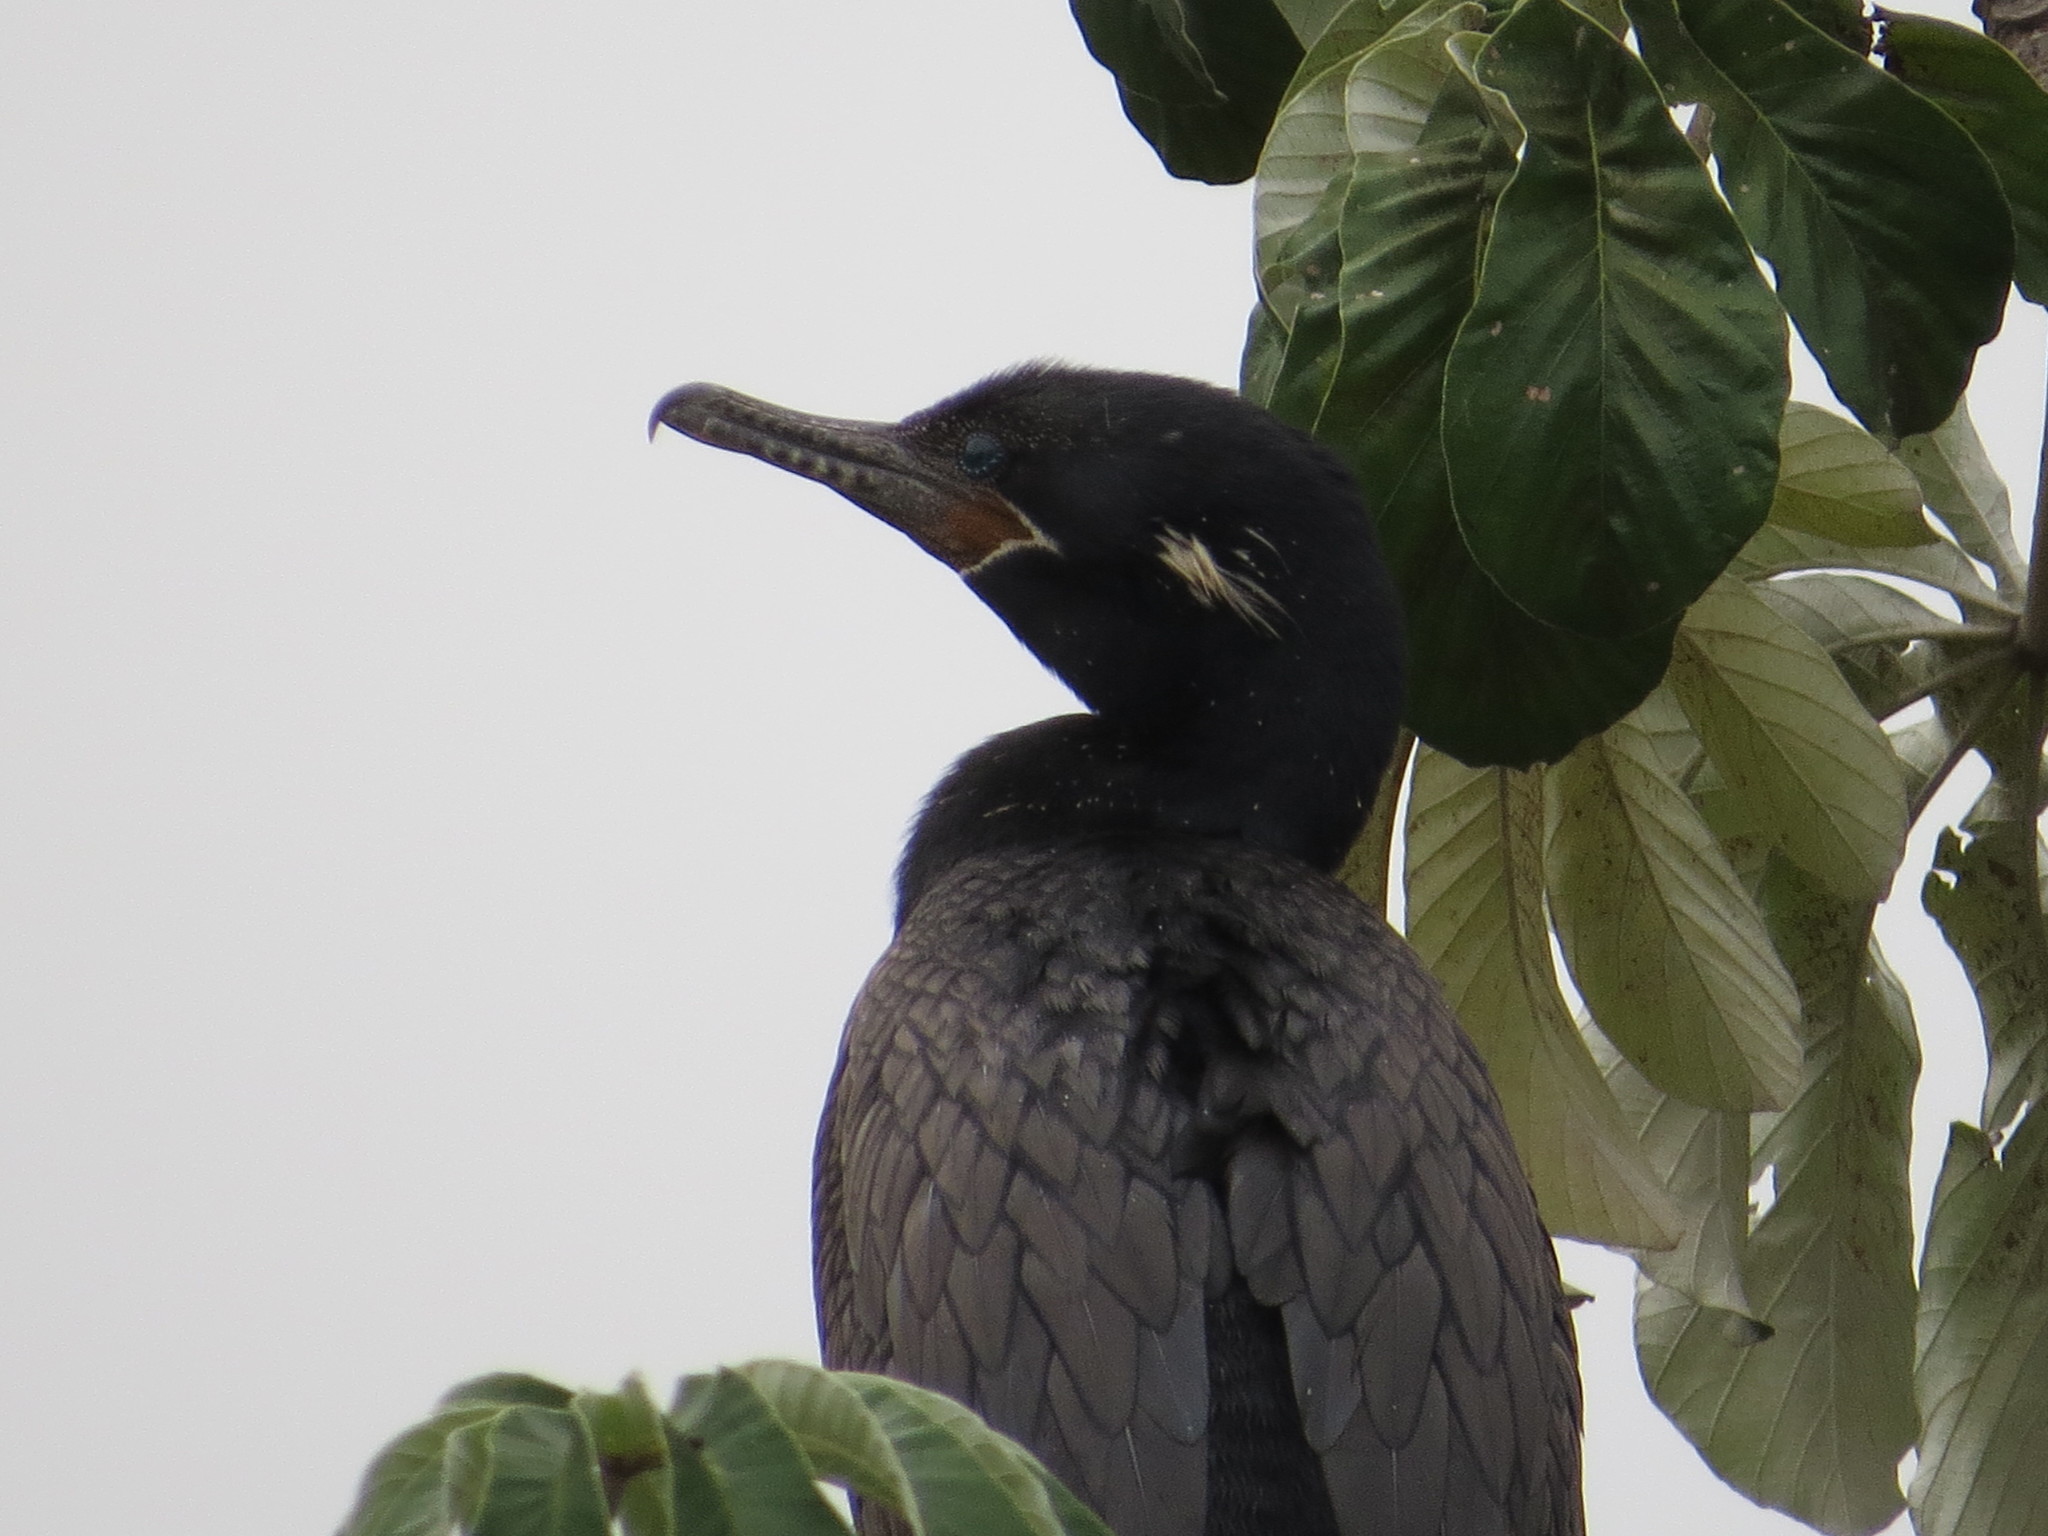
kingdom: Animalia
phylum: Chordata
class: Aves
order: Suliformes
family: Phalacrocoracidae
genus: Phalacrocorax
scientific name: Phalacrocorax brasilianus
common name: Neotropic cormorant
